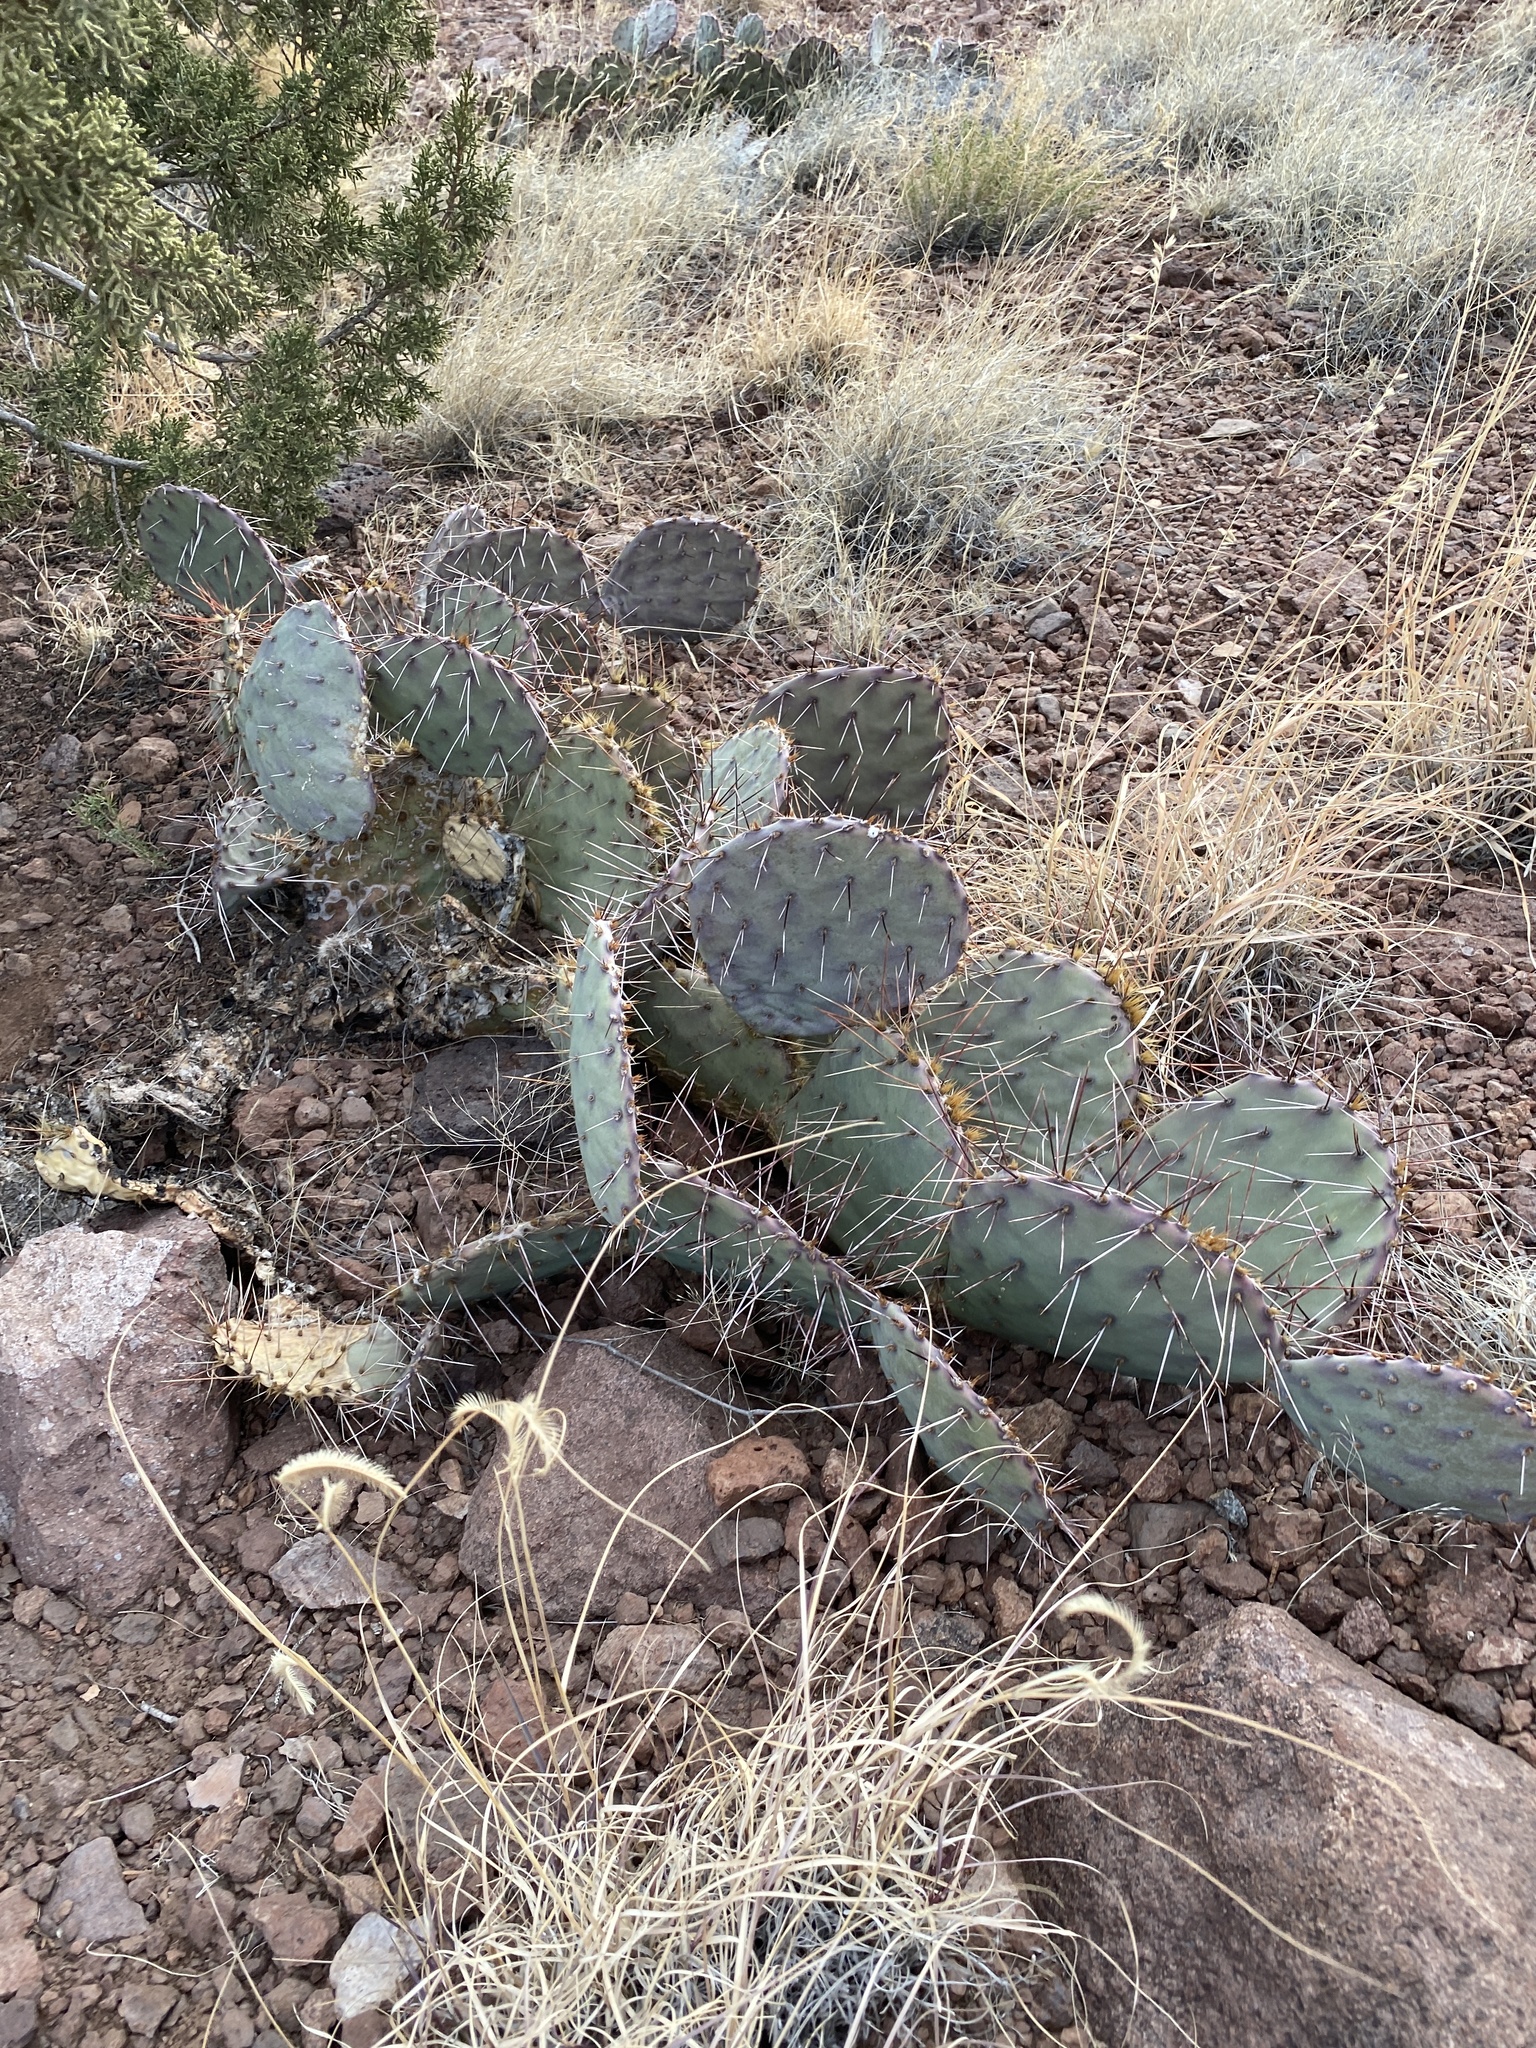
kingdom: Plantae
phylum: Tracheophyta
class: Magnoliopsida
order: Caryophyllales
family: Cactaceae
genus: Opuntia
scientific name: Opuntia phaeacantha
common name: New mexico prickly-pear
